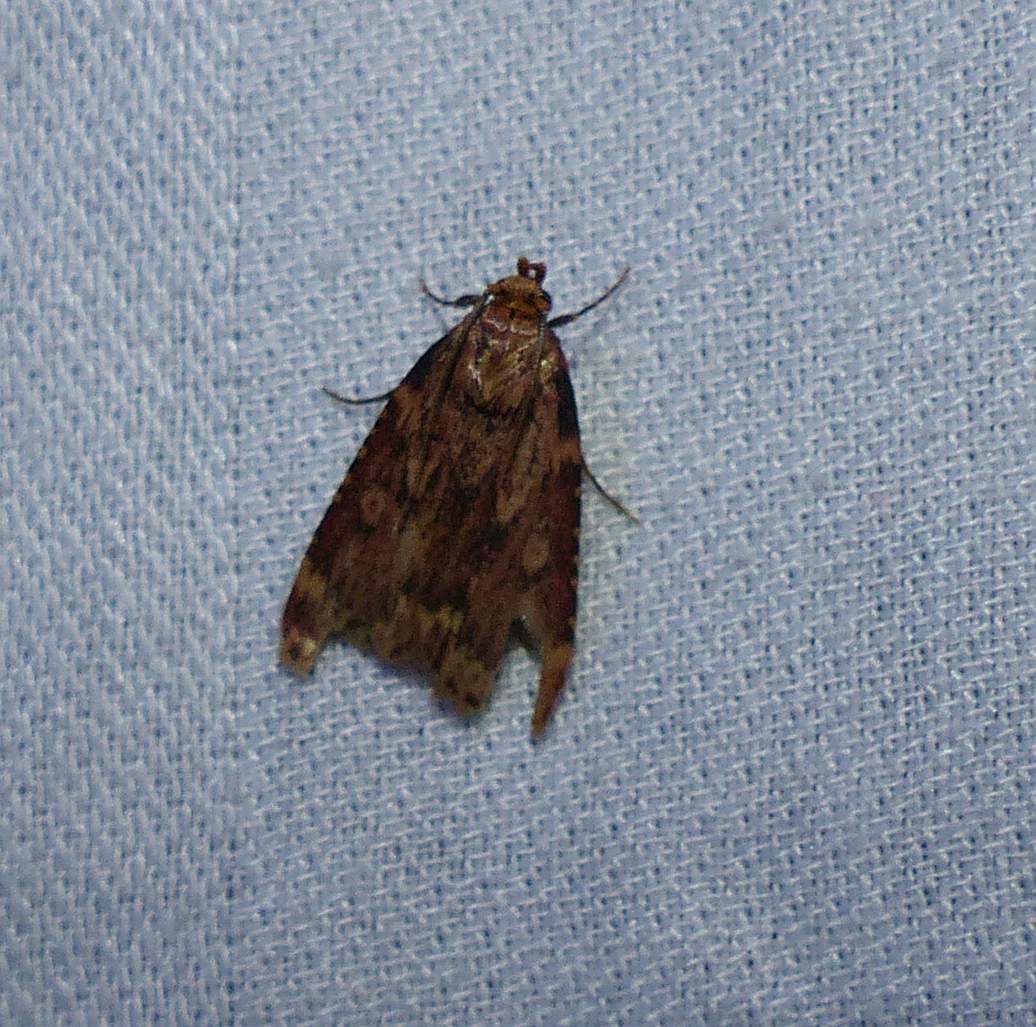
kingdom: Animalia
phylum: Arthropoda
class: Insecta
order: Lepidoptera
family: Pyralidae
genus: Aglossa
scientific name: Aglossa cuprina
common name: Grease moth
